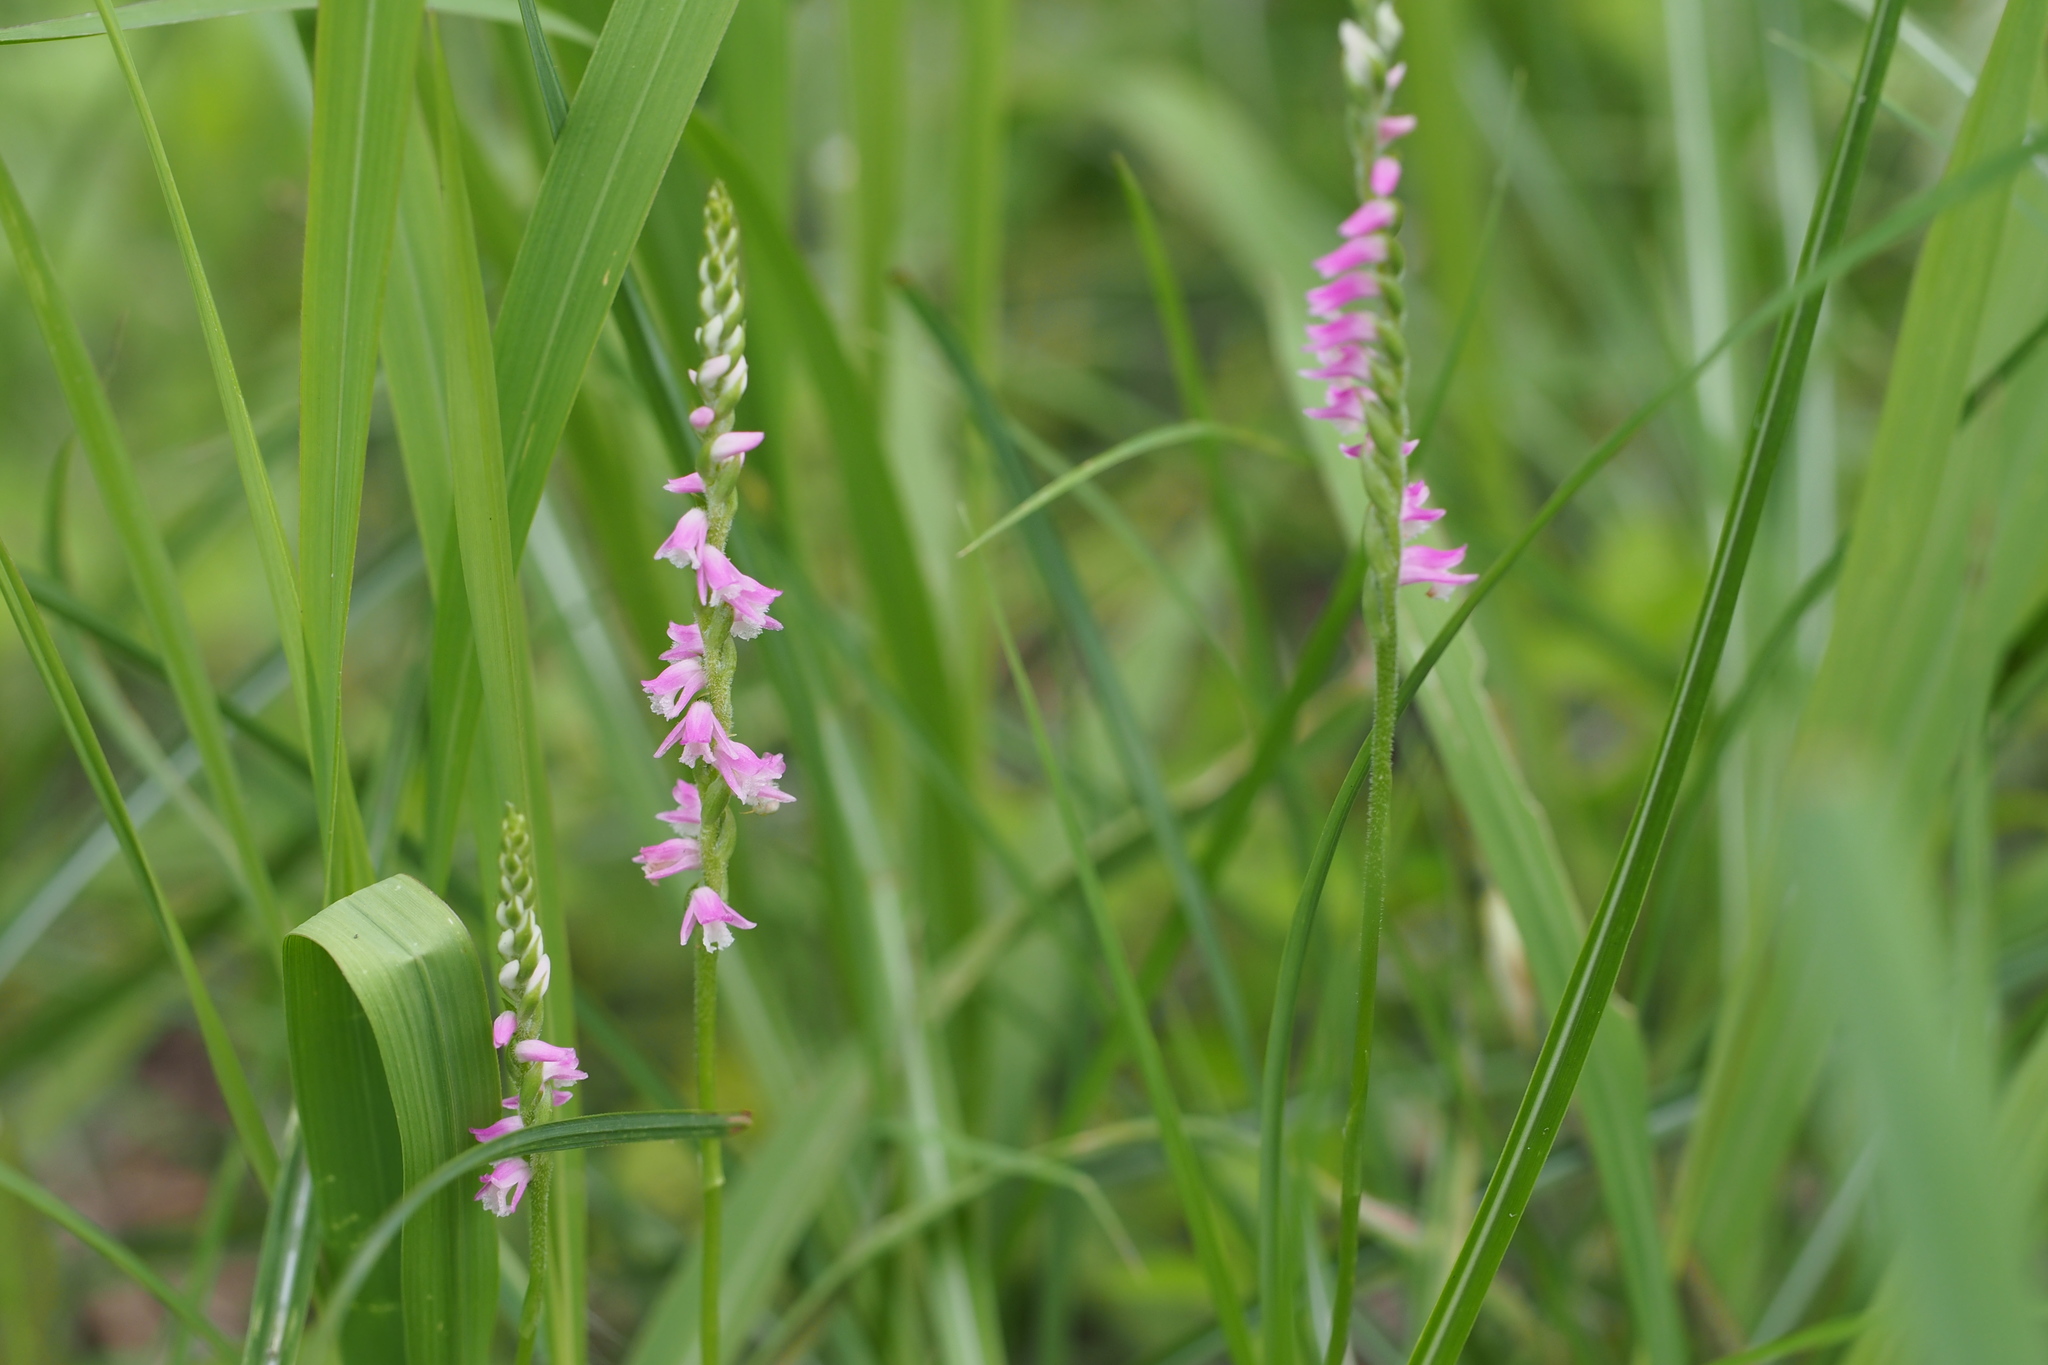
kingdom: Plantae
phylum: Tracheophyta
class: Liliopsida
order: Asparagales
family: Orchidaceae
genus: Spiranthes
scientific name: Spiranthes australis
